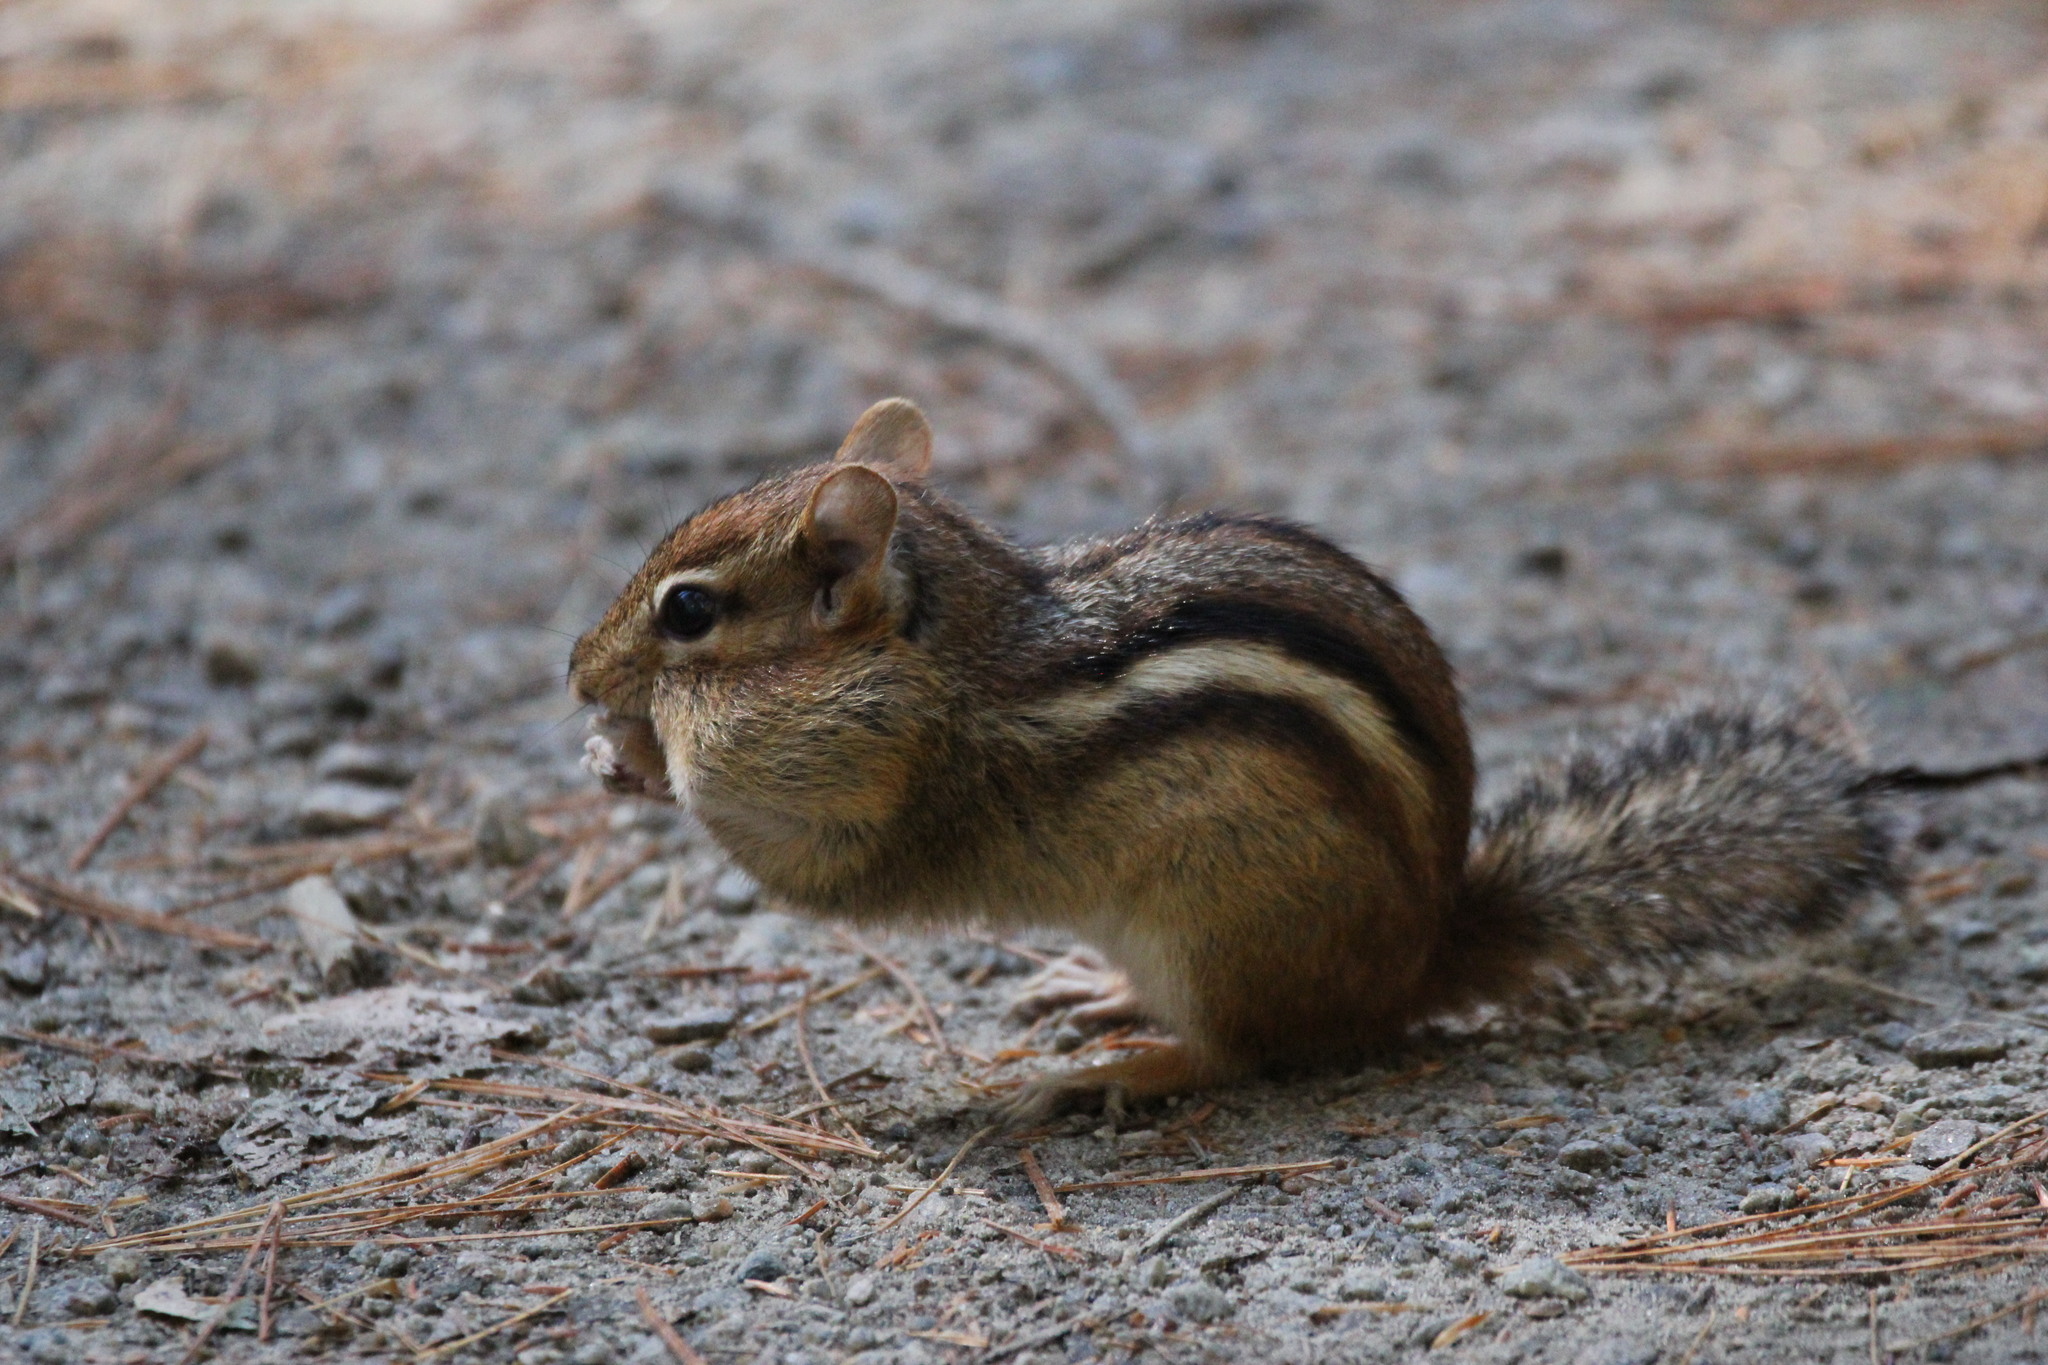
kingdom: Animalia
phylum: Chordata
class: Mammalia
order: Rodentia
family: Sciuridae
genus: Tamias
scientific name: Tamias striatus
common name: Eastern chipmunk
